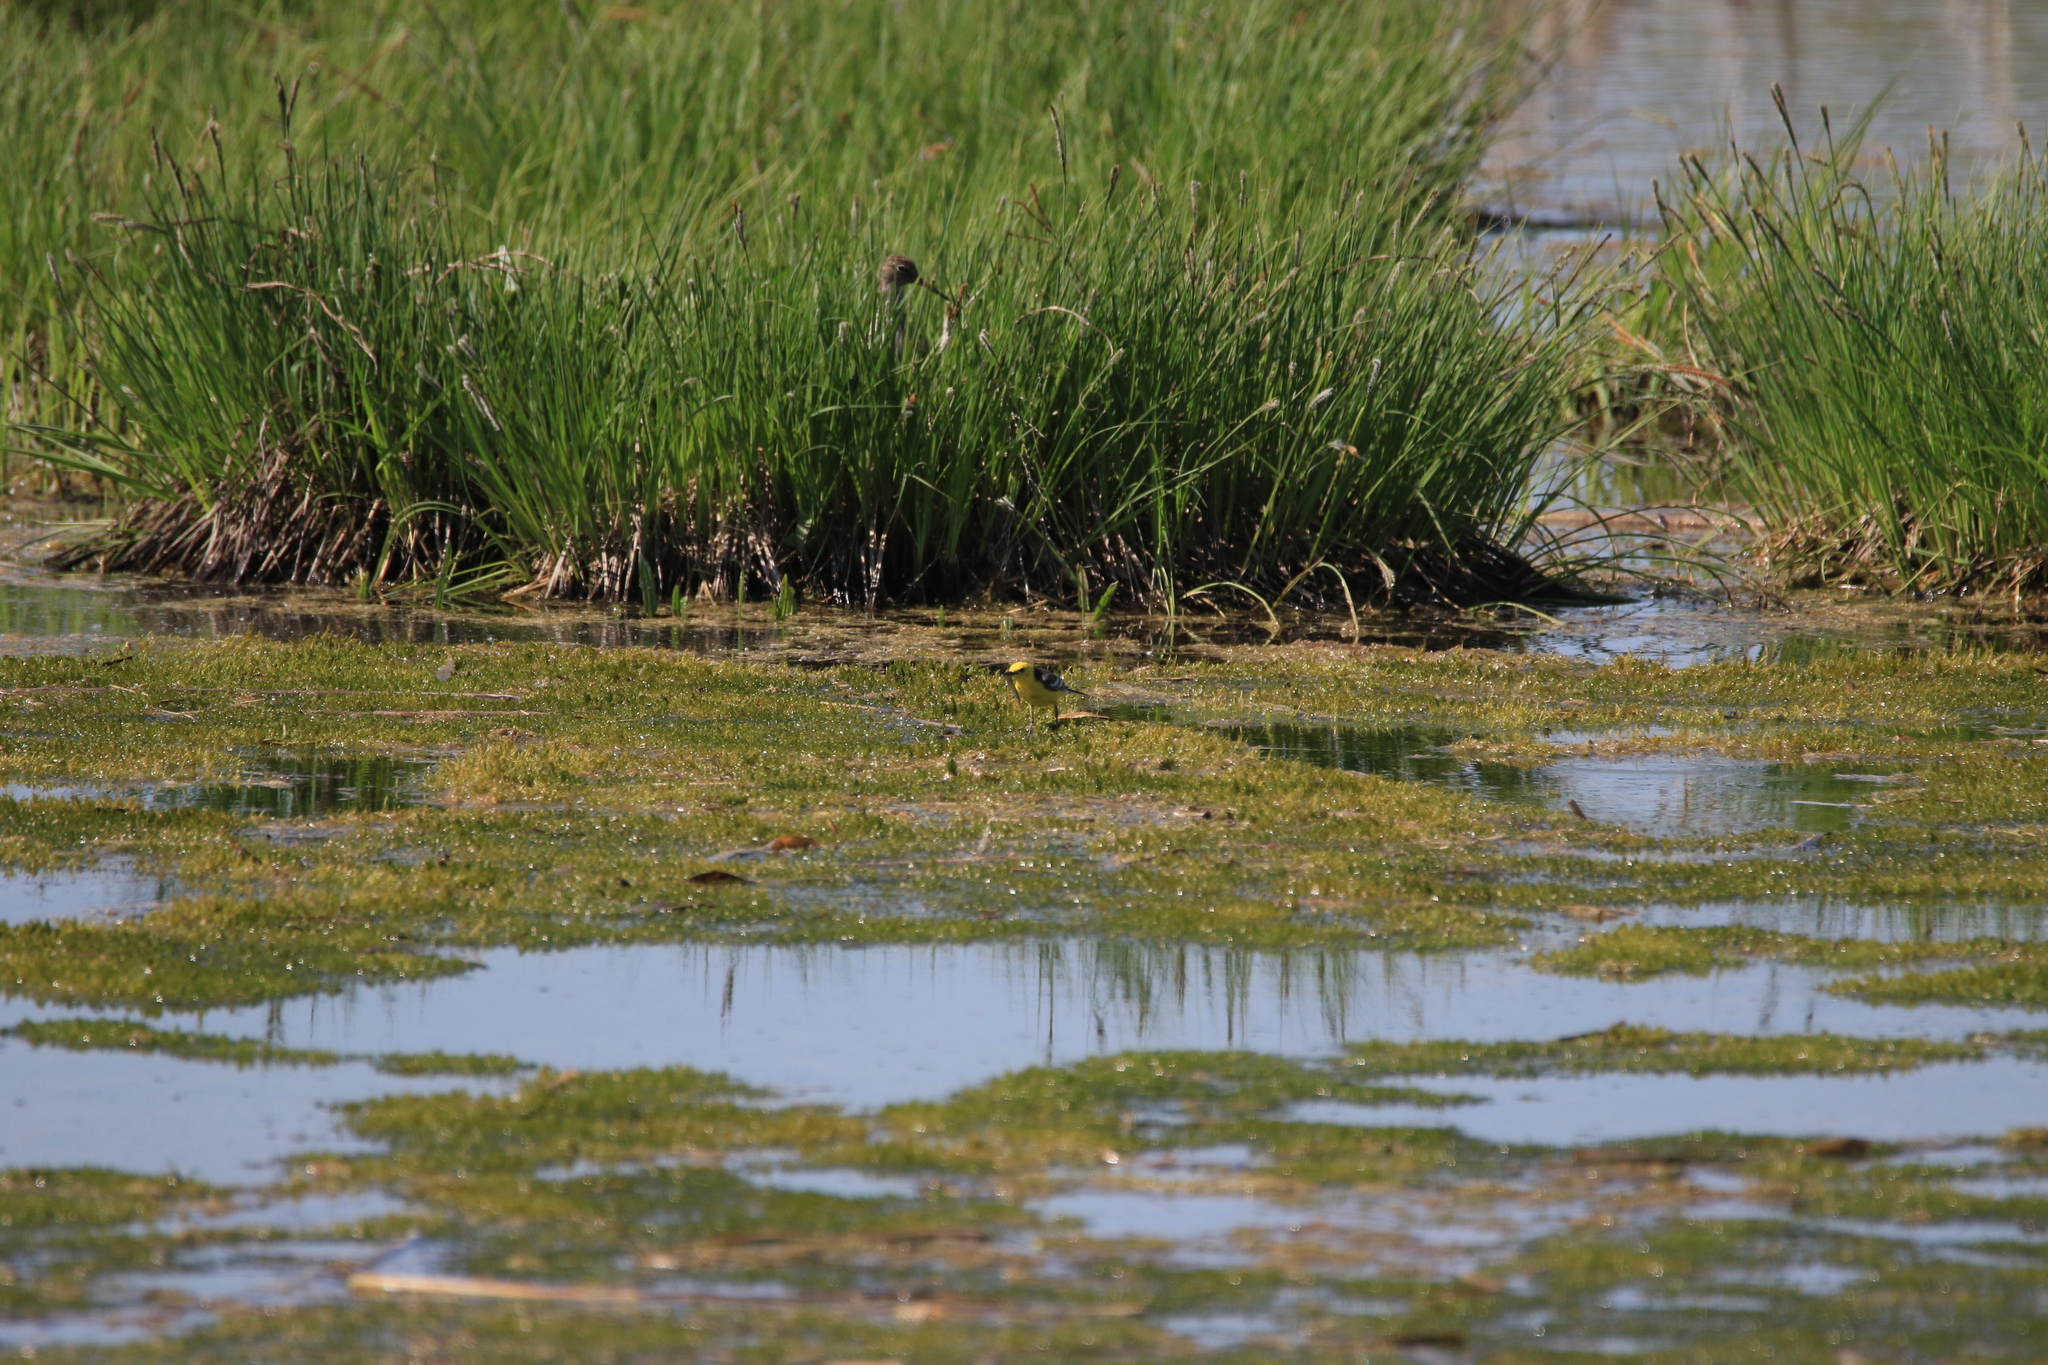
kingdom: Animalia
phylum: Chordata
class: Aves
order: Passeriformes
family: Motacillidae
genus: Motacilla
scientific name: Motacilla citreola
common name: Citrine wagtail
